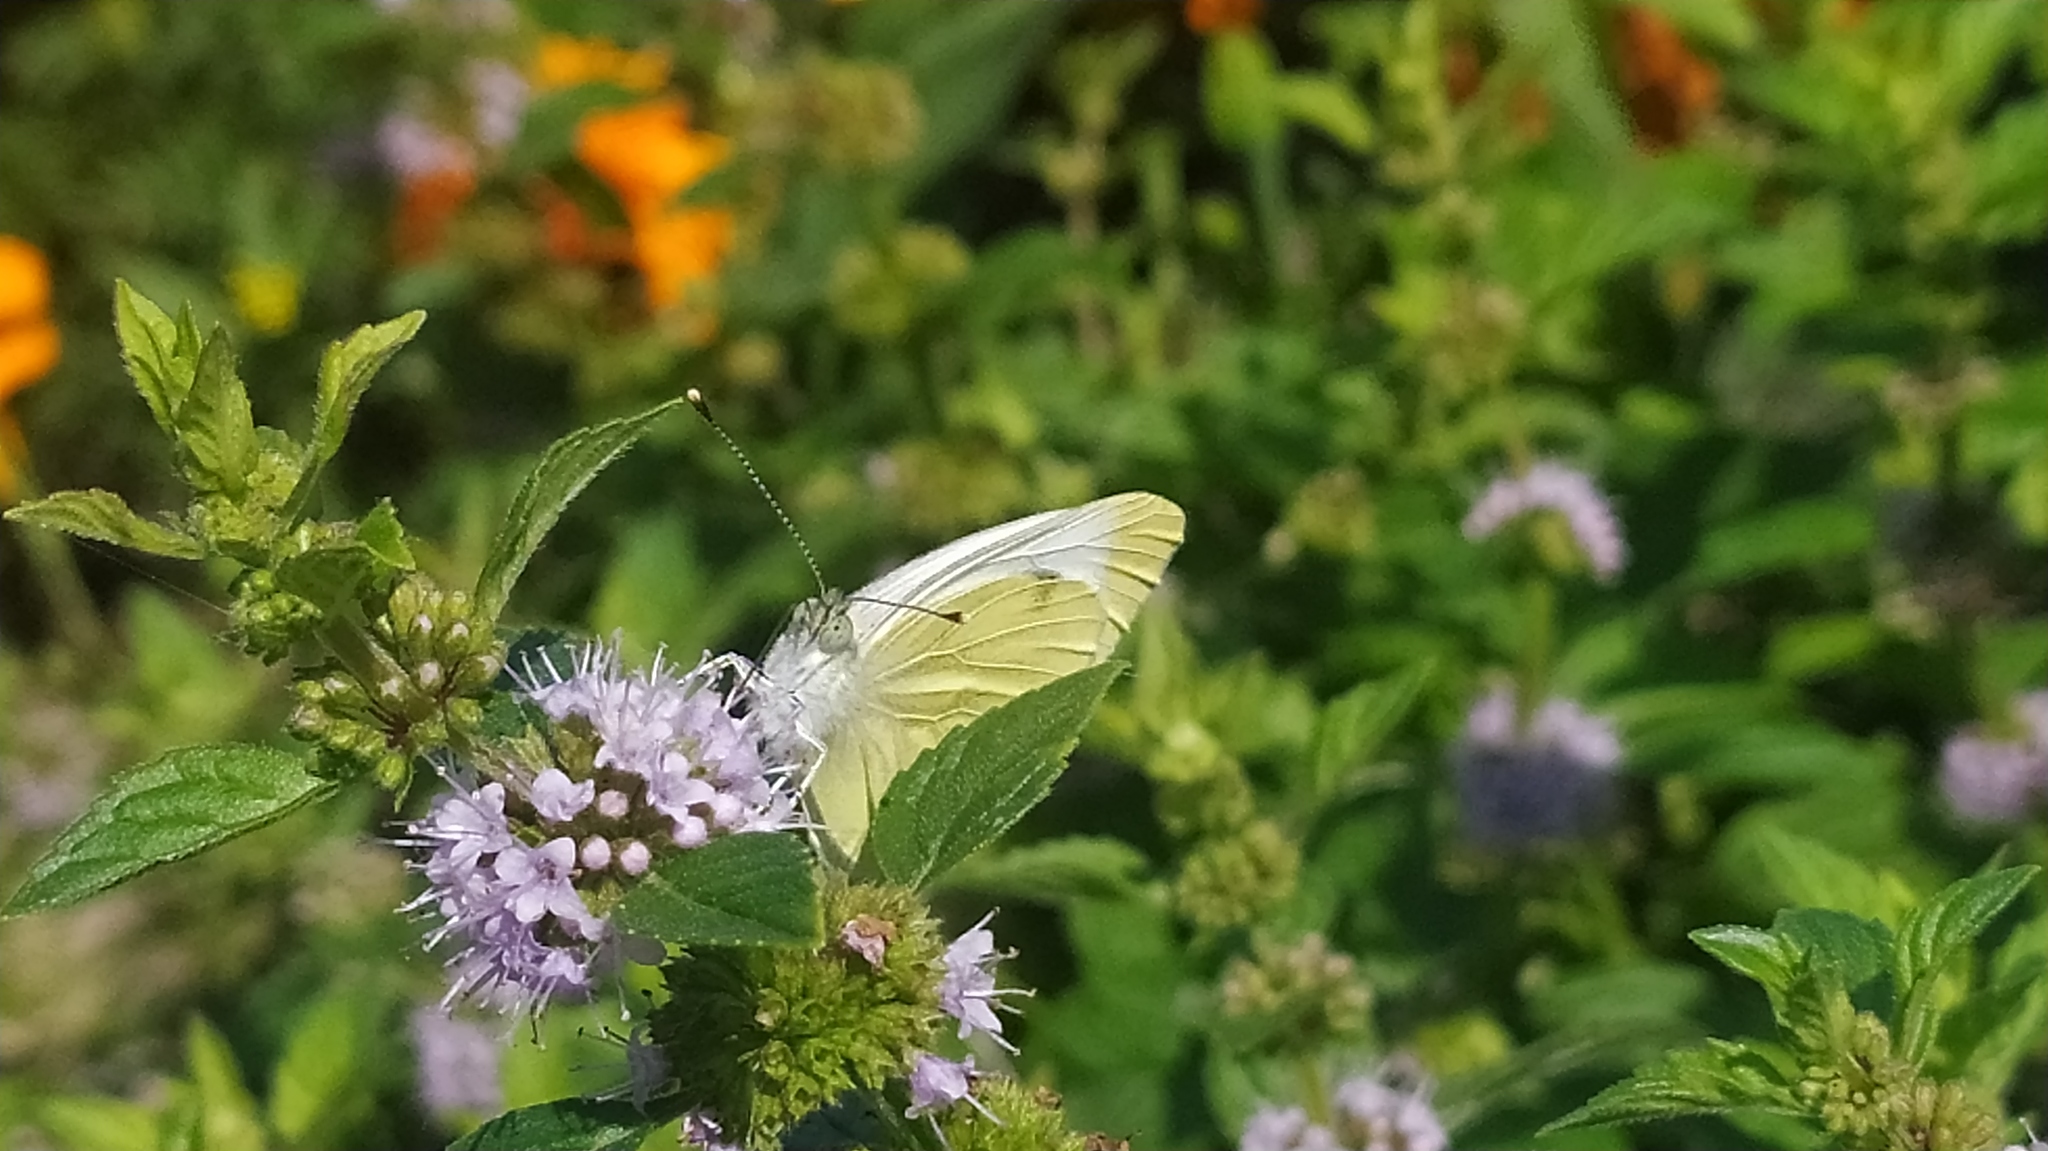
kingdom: Animalia
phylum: Arthropoda
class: Insecta
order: Lepidoptera
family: Pieridae
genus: Pieris
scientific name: Pieris napi
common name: Green-veined white
